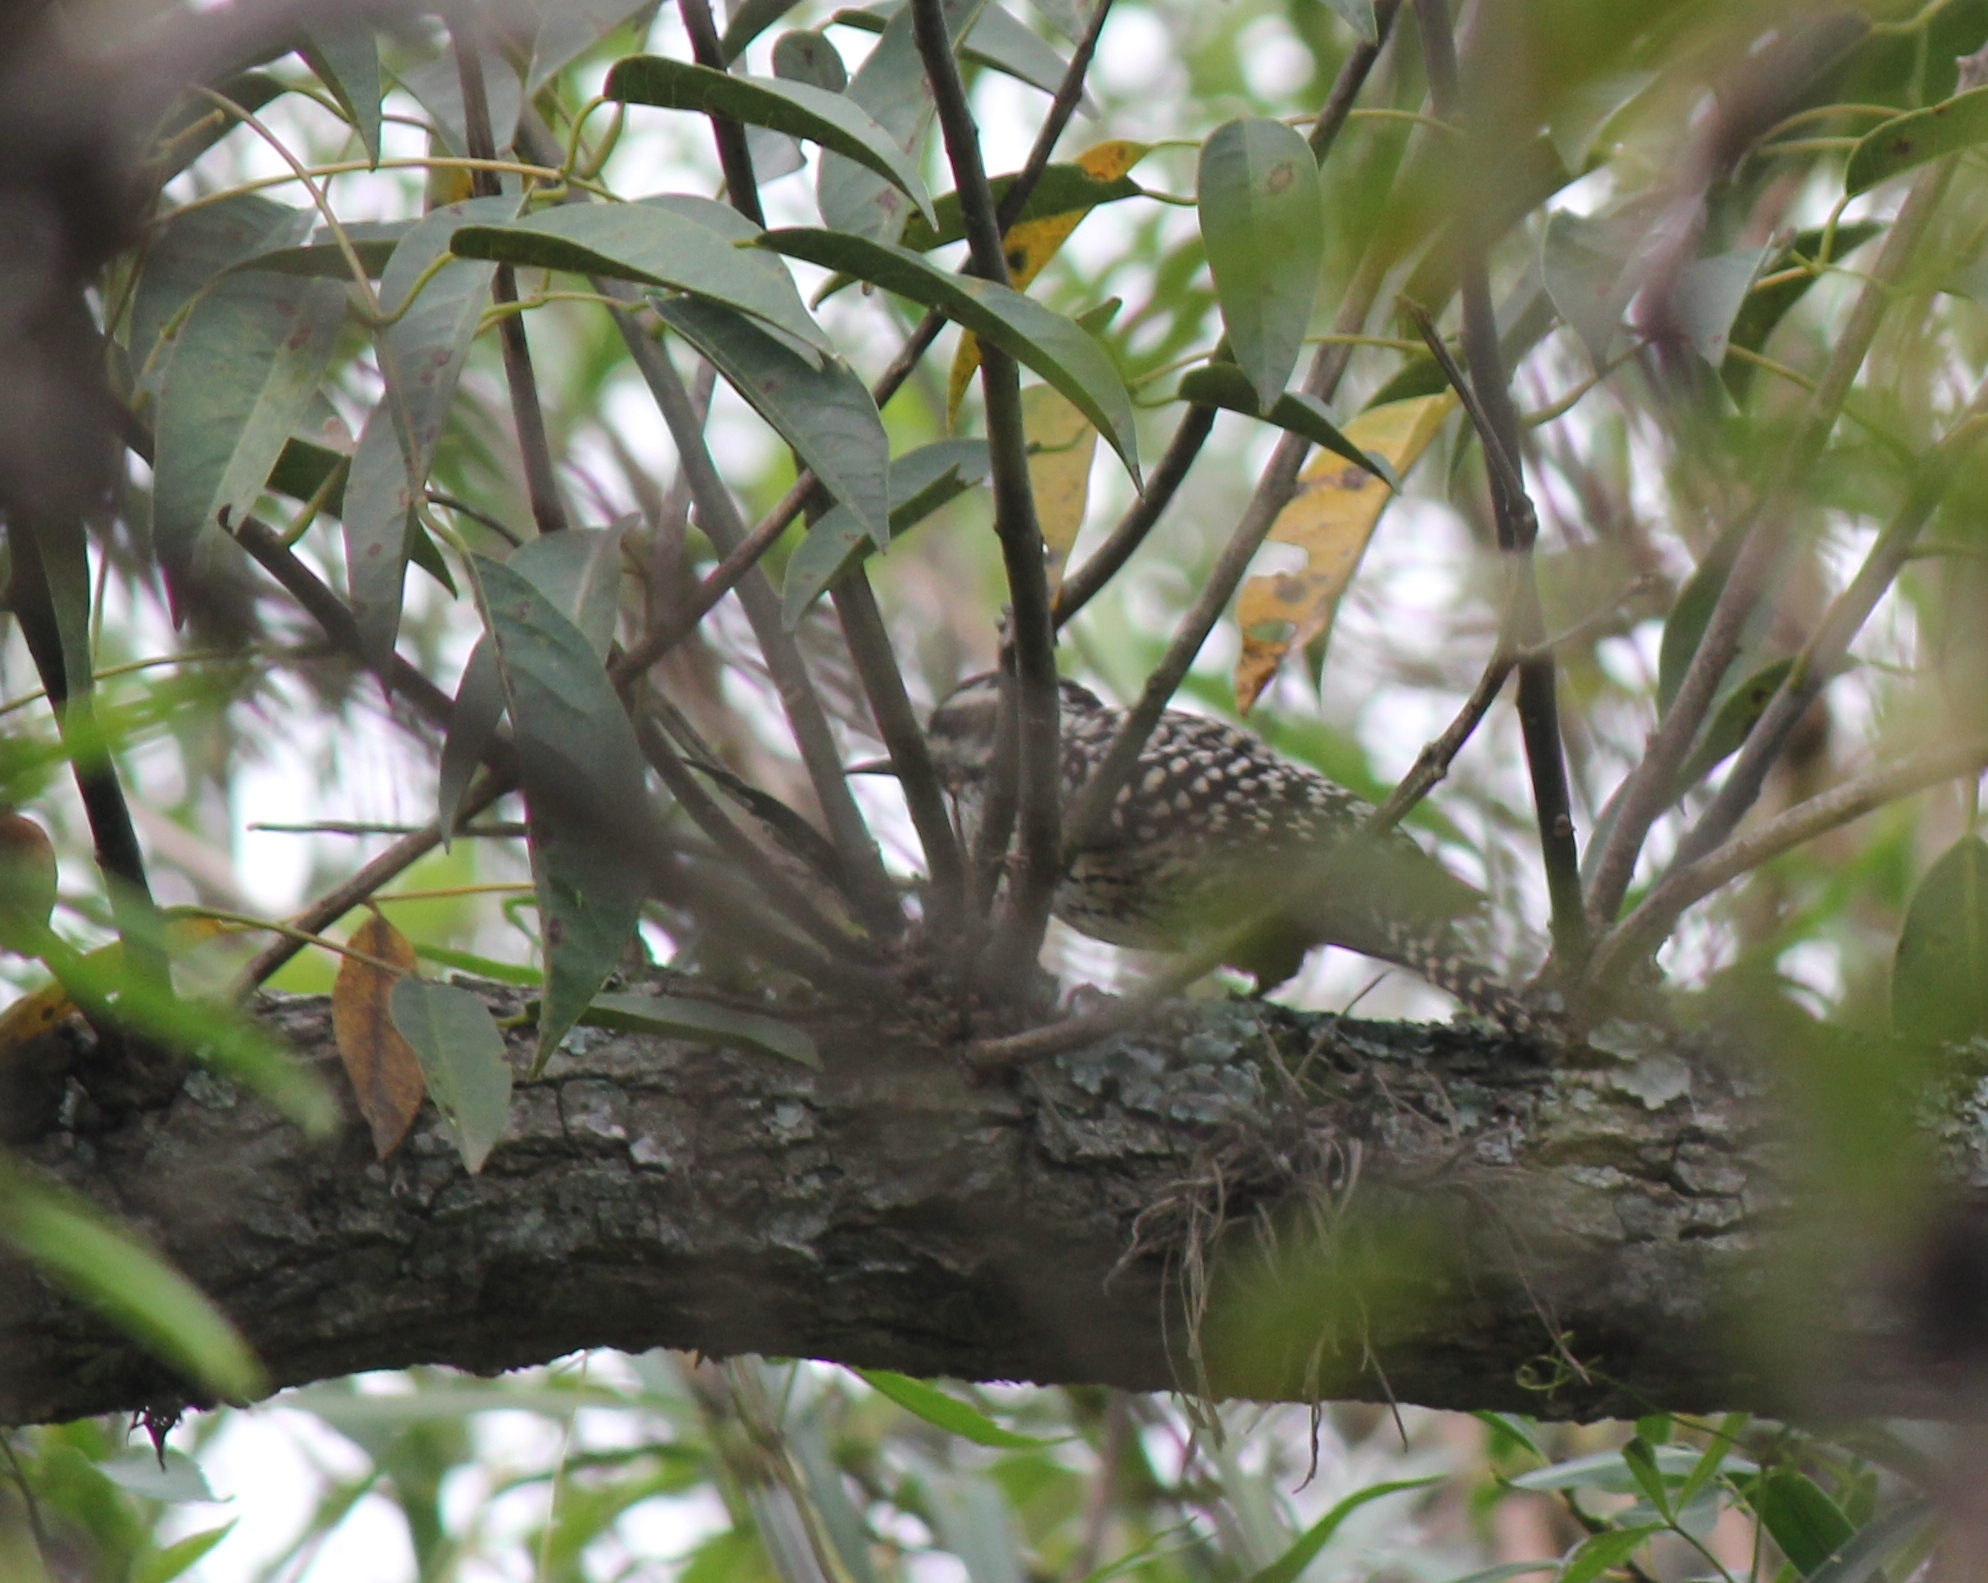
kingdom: Animalia
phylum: Chordata
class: Aves
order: Piciformes
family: Picidae
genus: Veniliornis
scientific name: Veniliornis mixtus
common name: Checkered woodpecker
